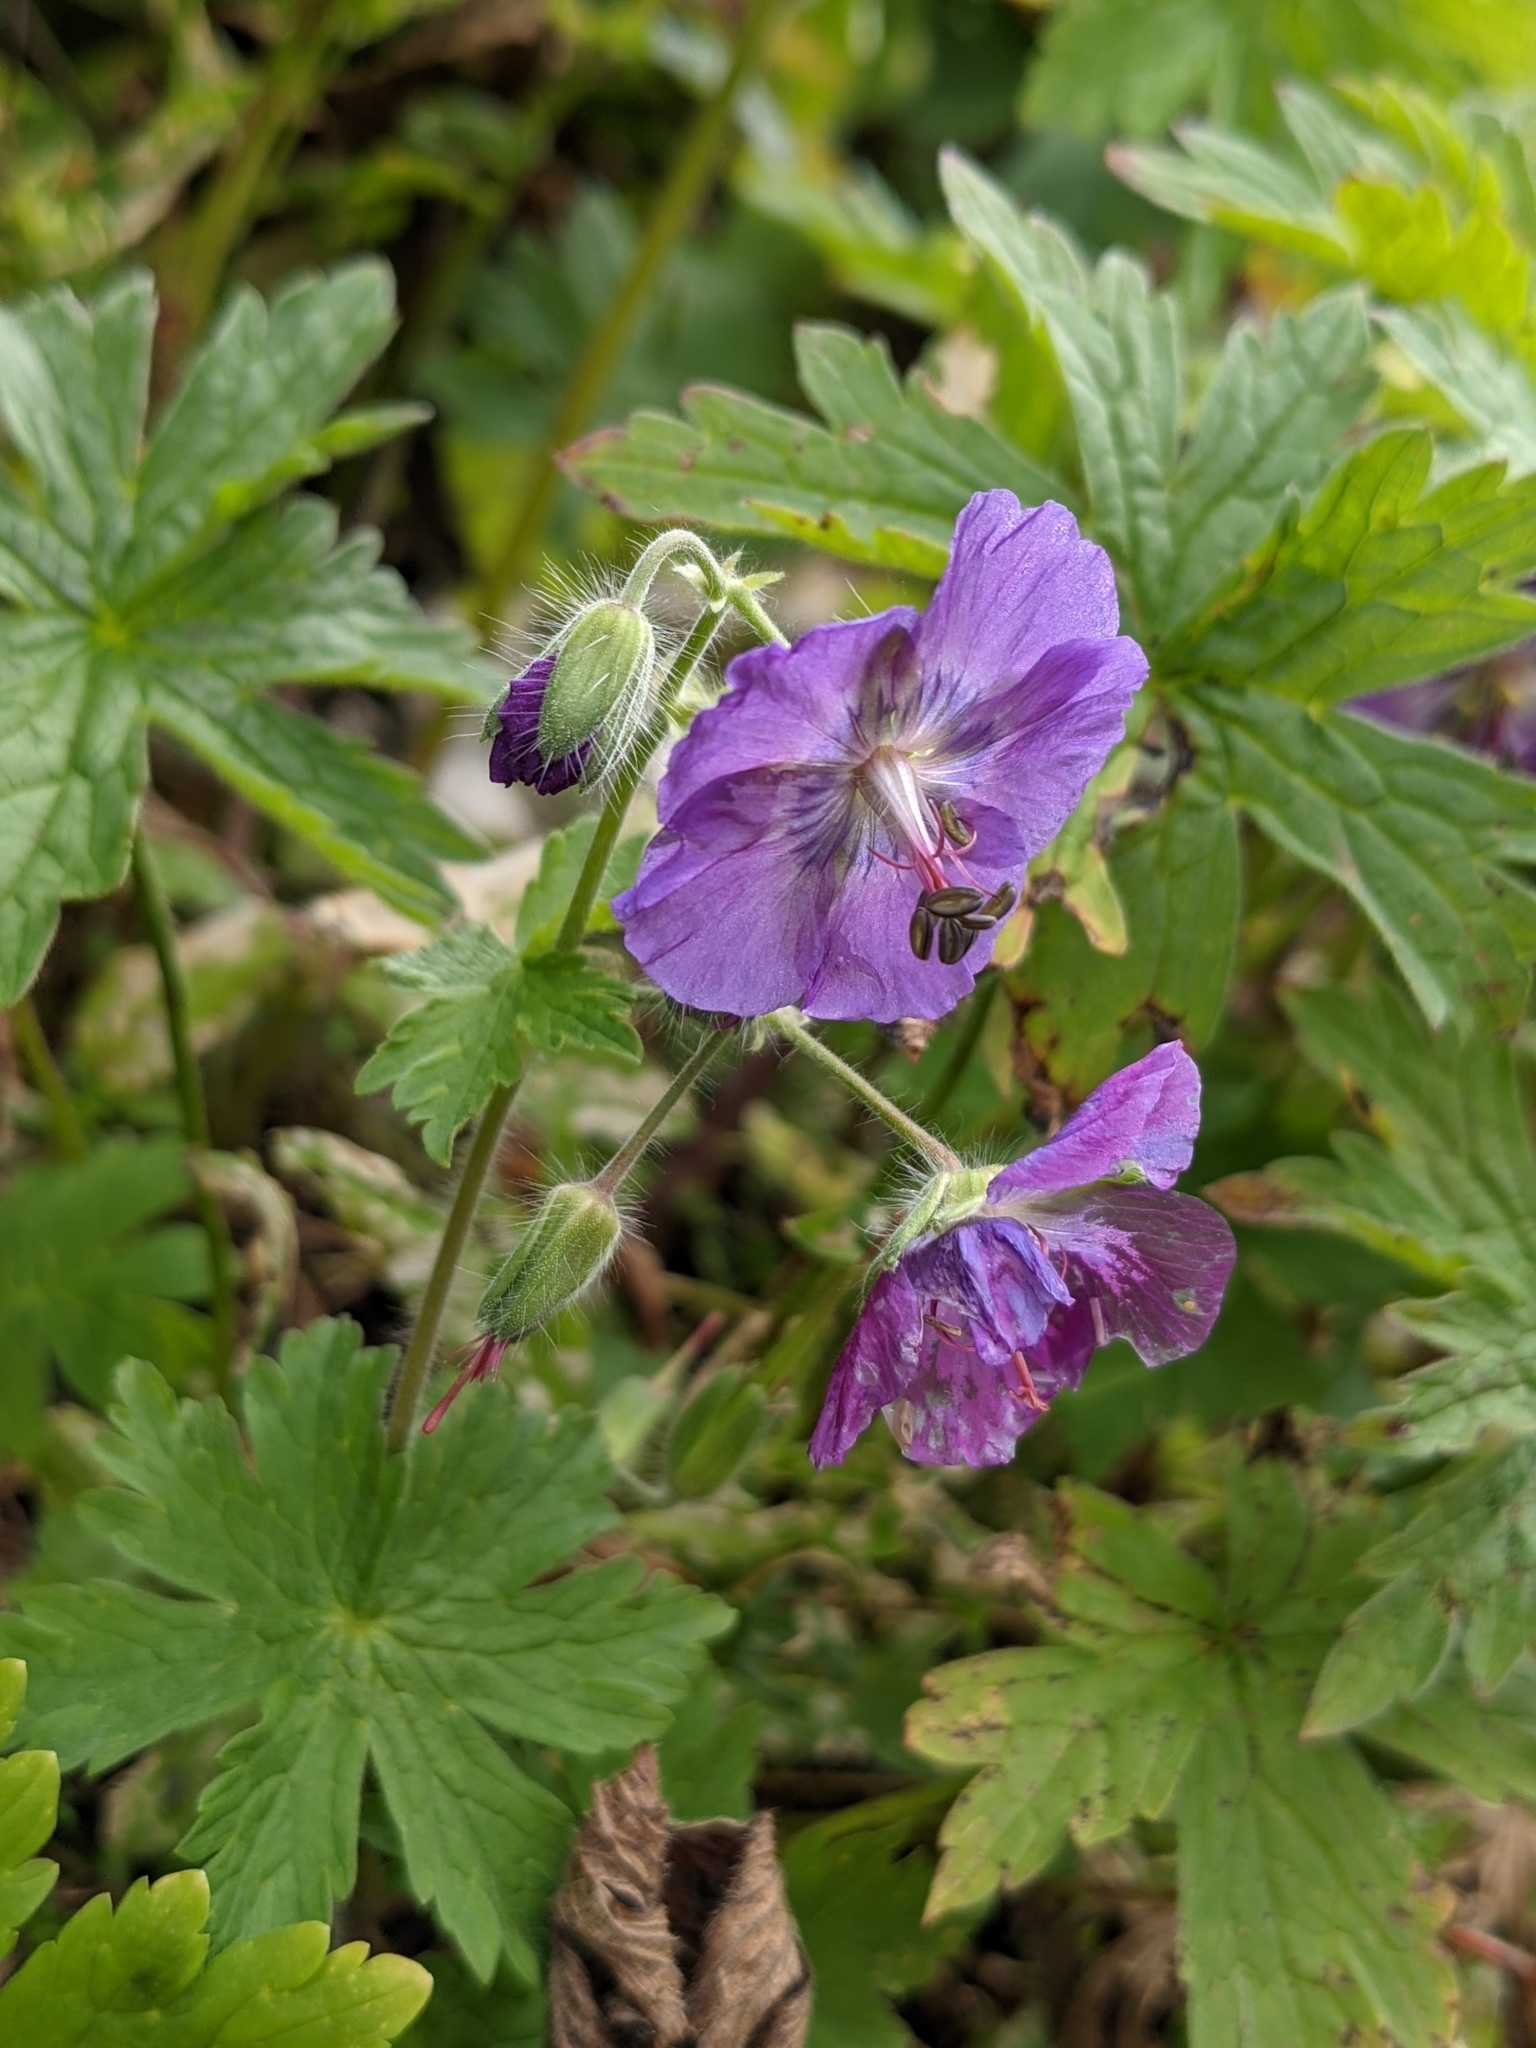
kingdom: Plantae
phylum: Tracheophyta
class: Magnoliopsida
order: Geraniales
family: Geraniaceae
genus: Geranium
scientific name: Geranium phaeum
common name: Dusky crane's-bill
